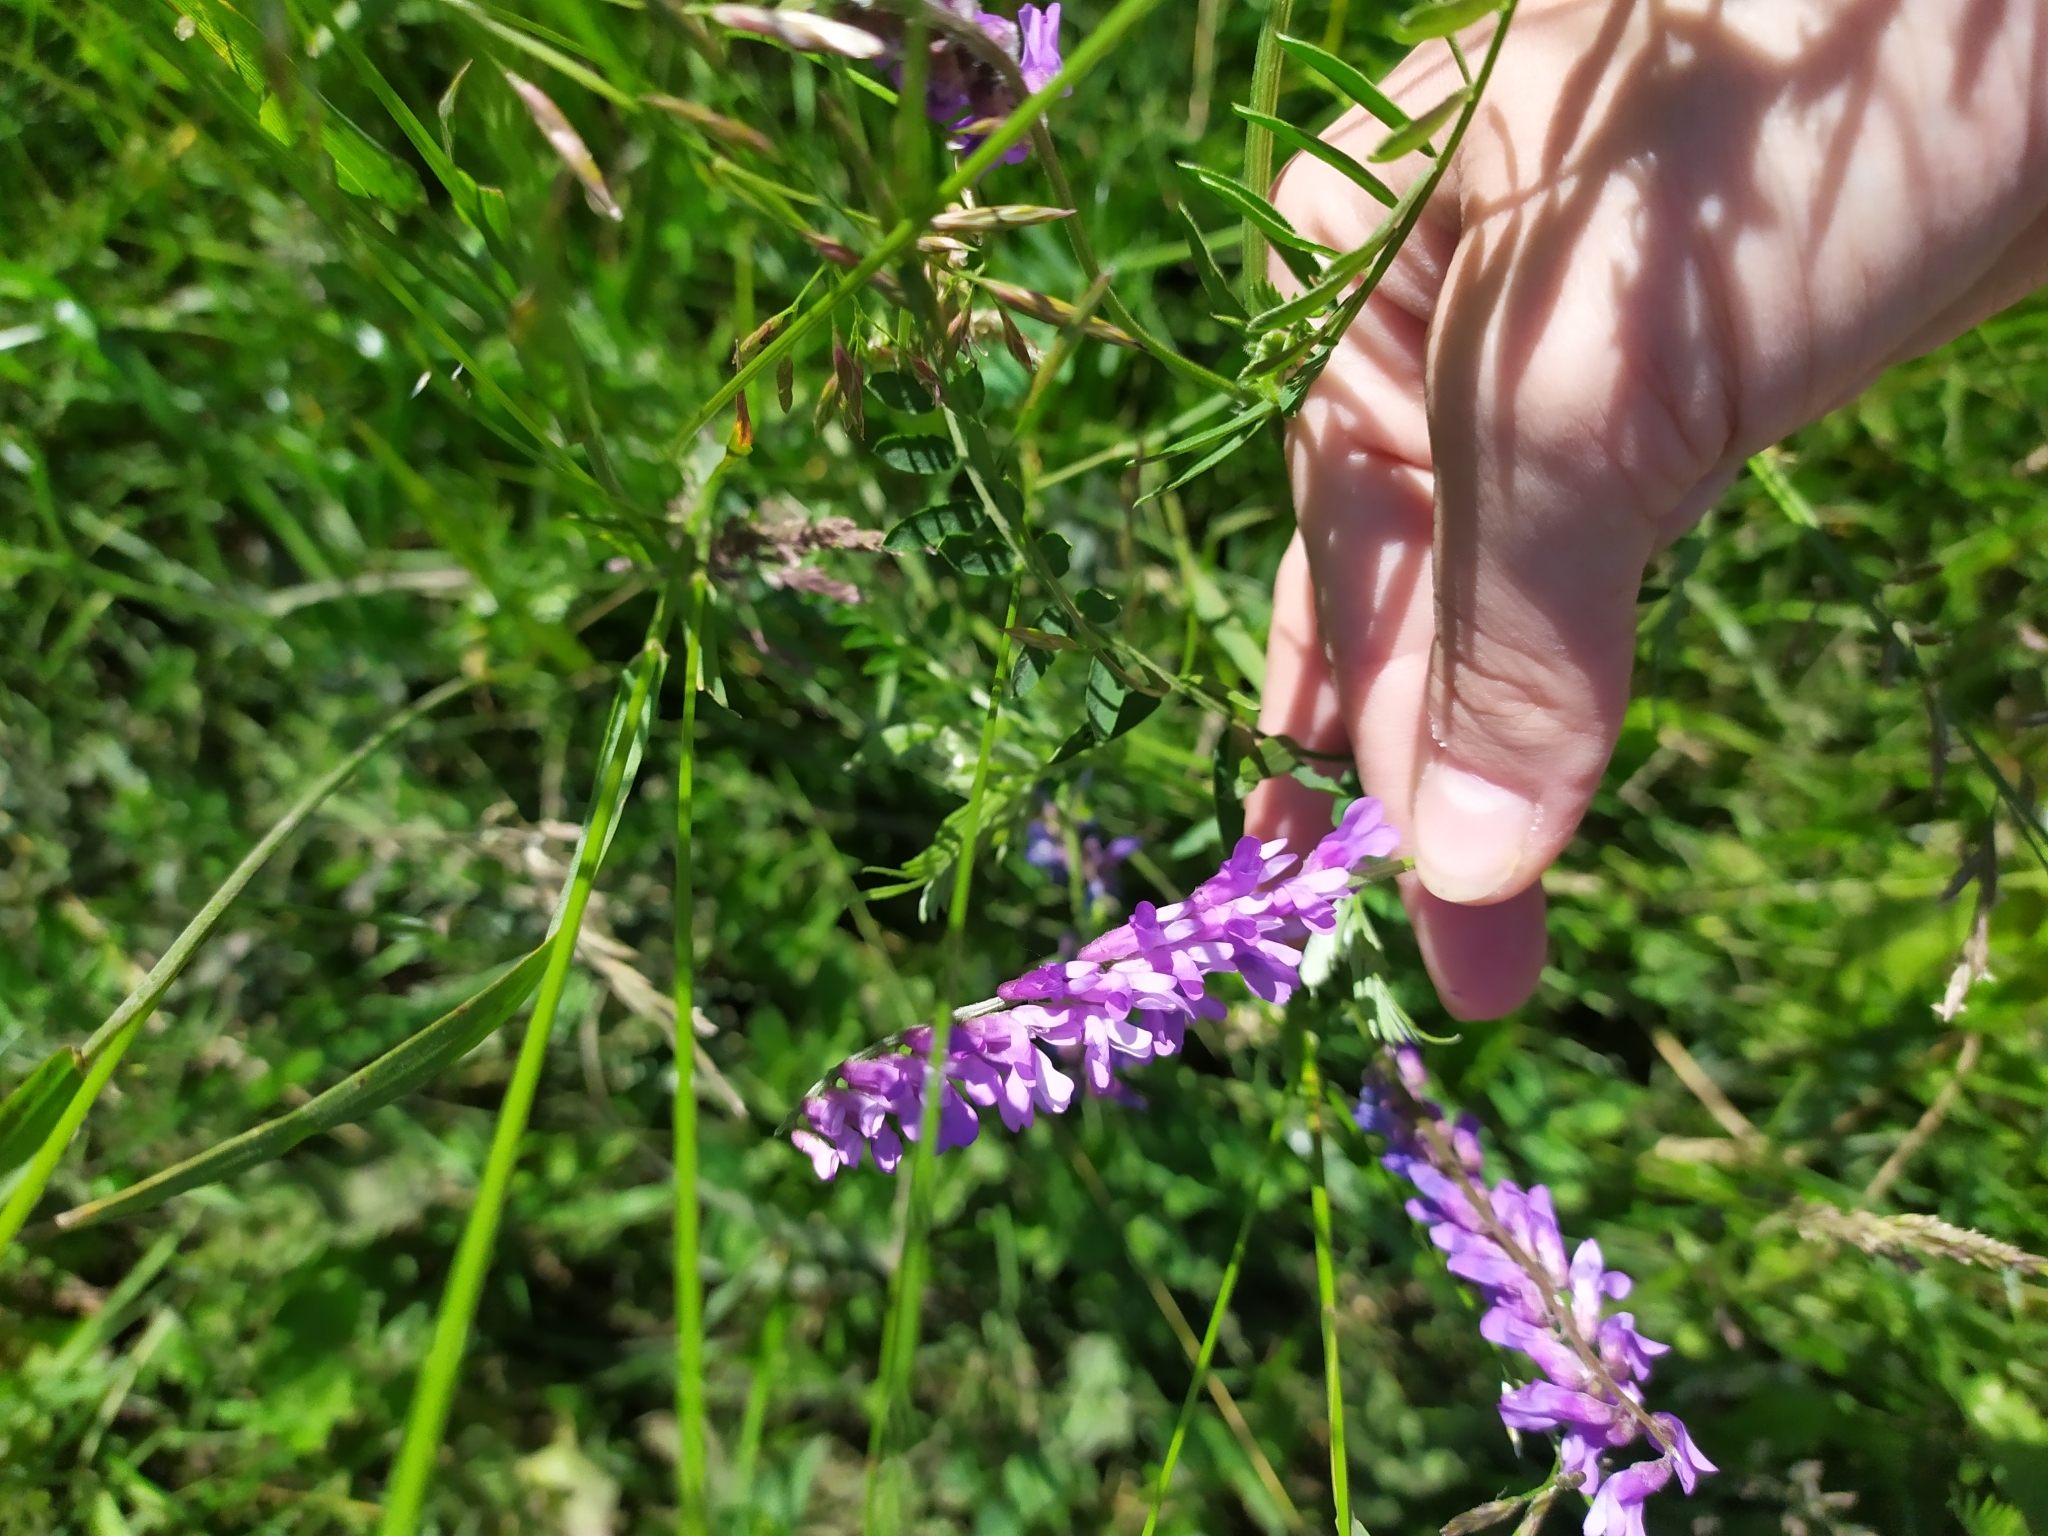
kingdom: Plantae
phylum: Tracheophyta
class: Magnoliopsida
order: Fabales
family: Fabaceae
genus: Vicia
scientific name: Vicia cracca
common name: Bird vetch
